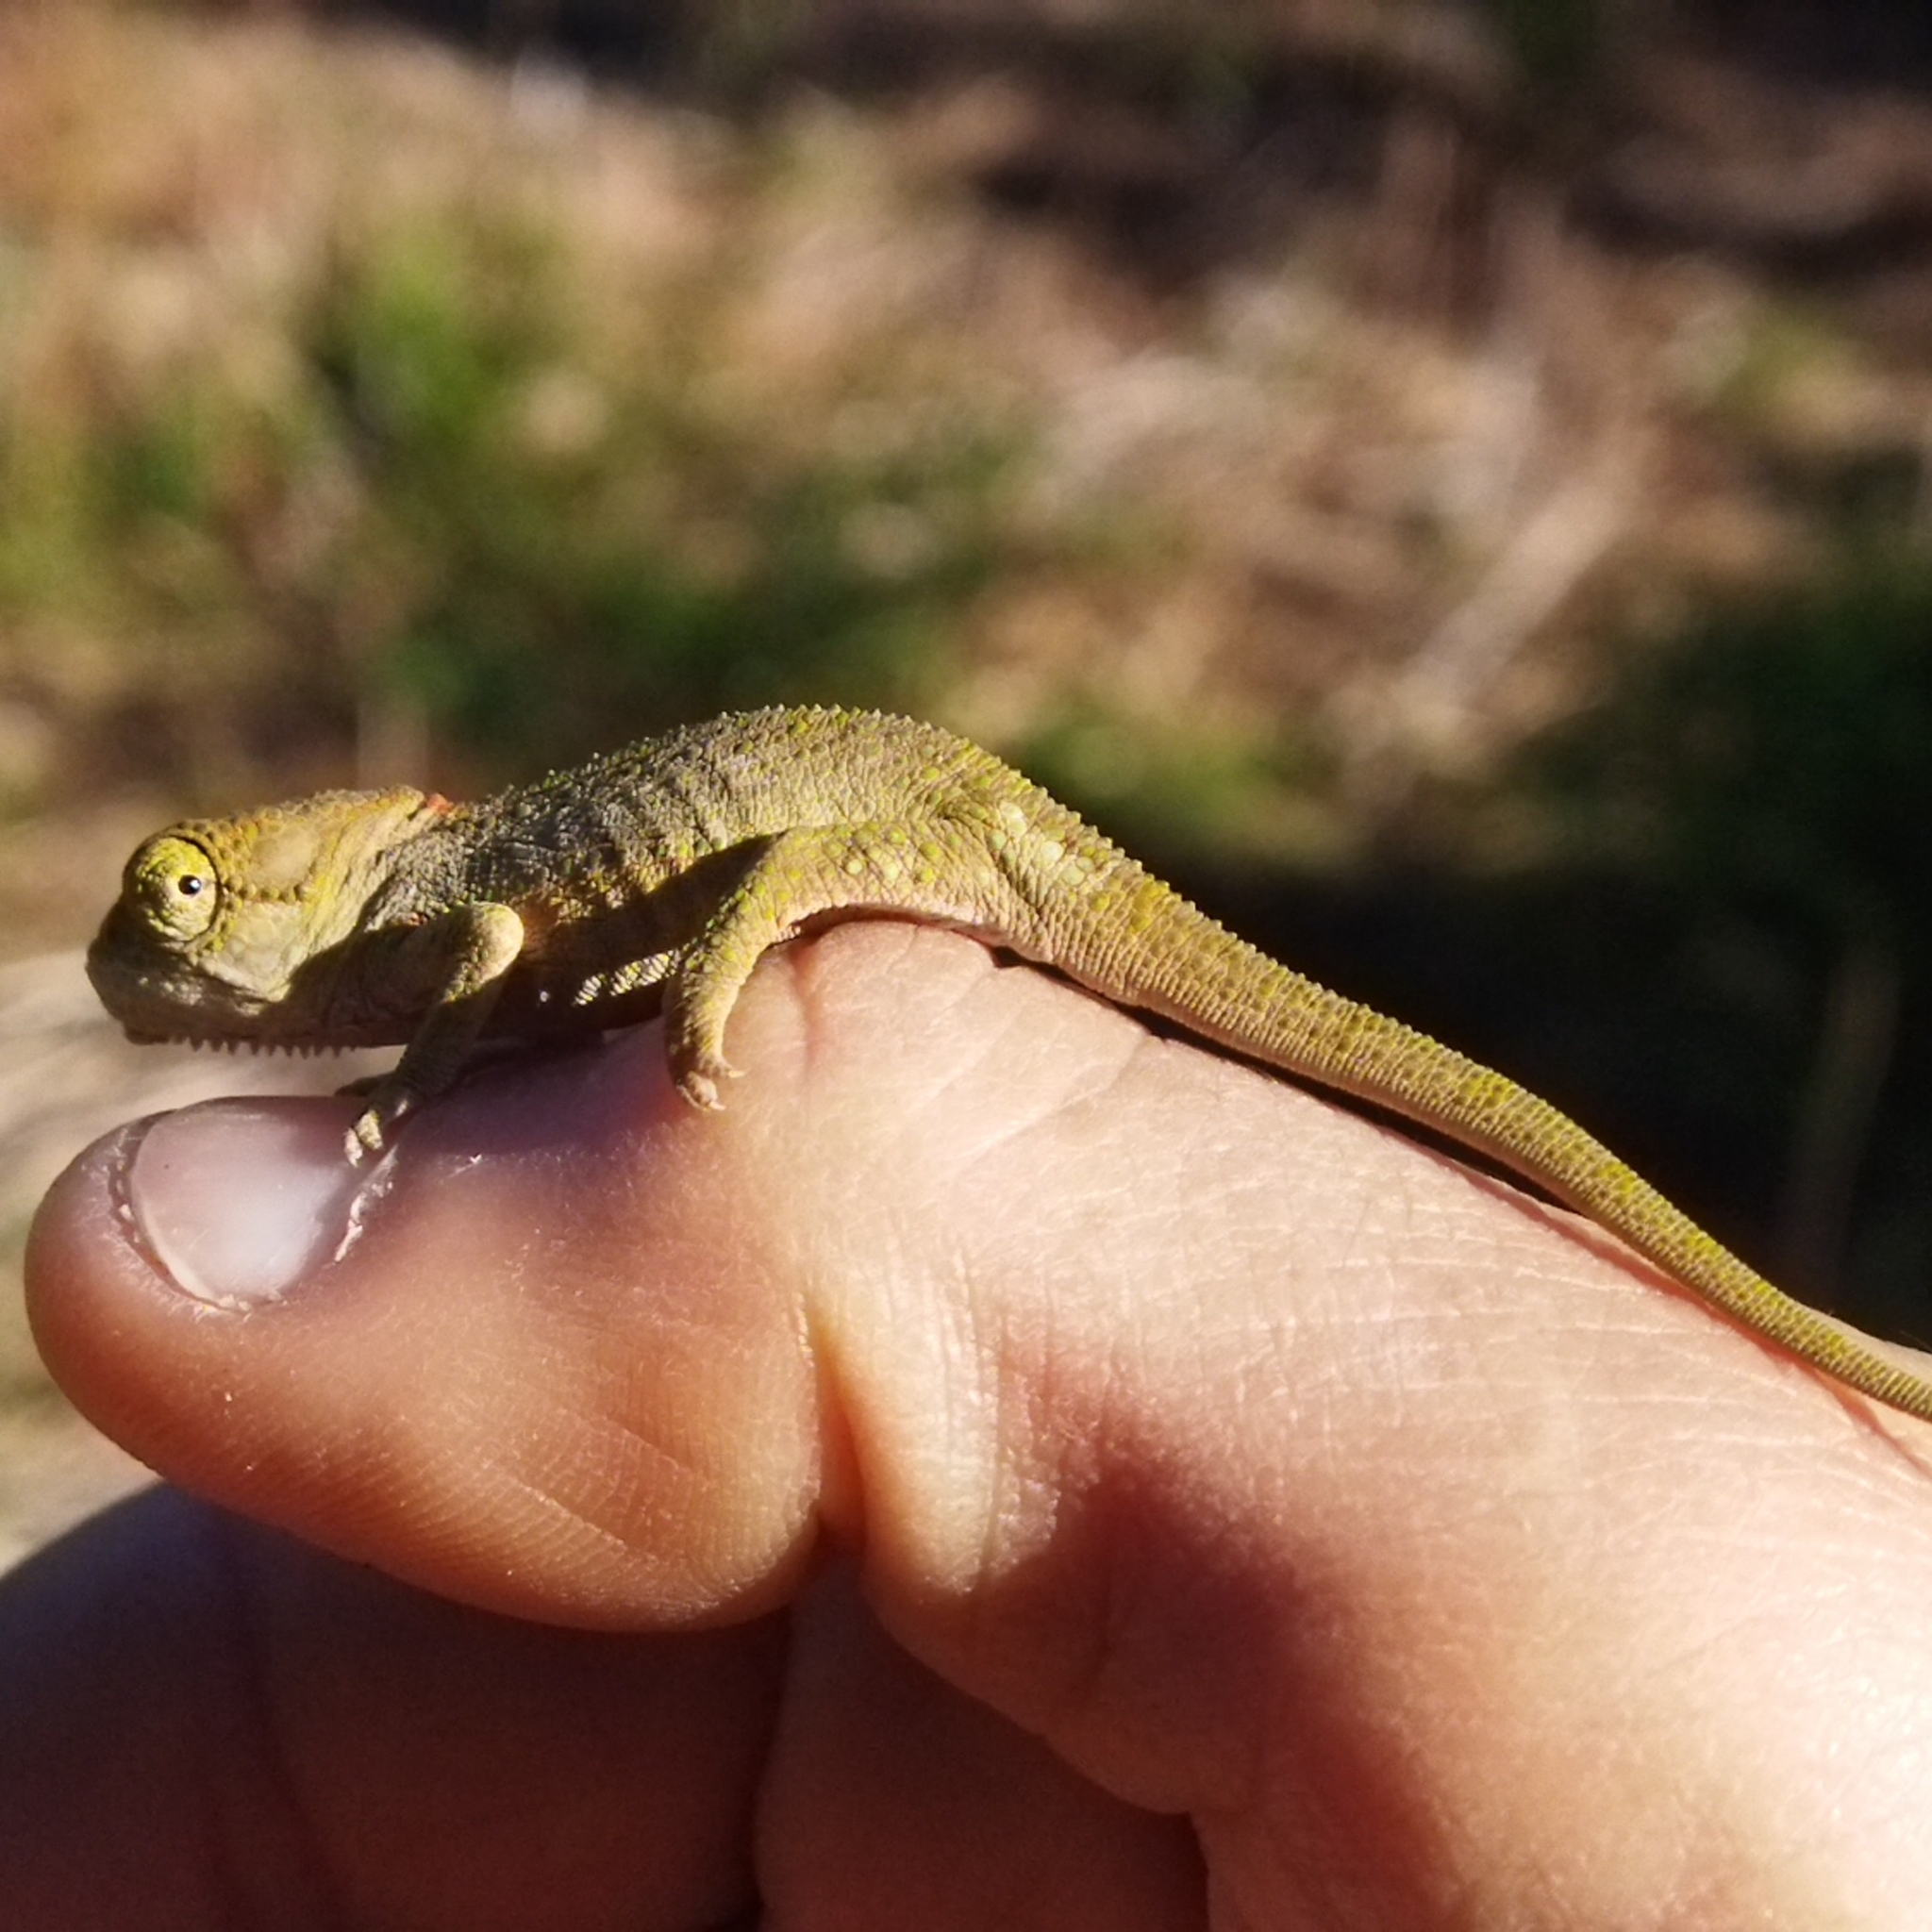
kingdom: Animalia
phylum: Chordata
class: Squamata
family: Chamaeleonidae
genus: Bradypodion
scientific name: Bradypodion damaranum
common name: Knysna dwarf chameleon
